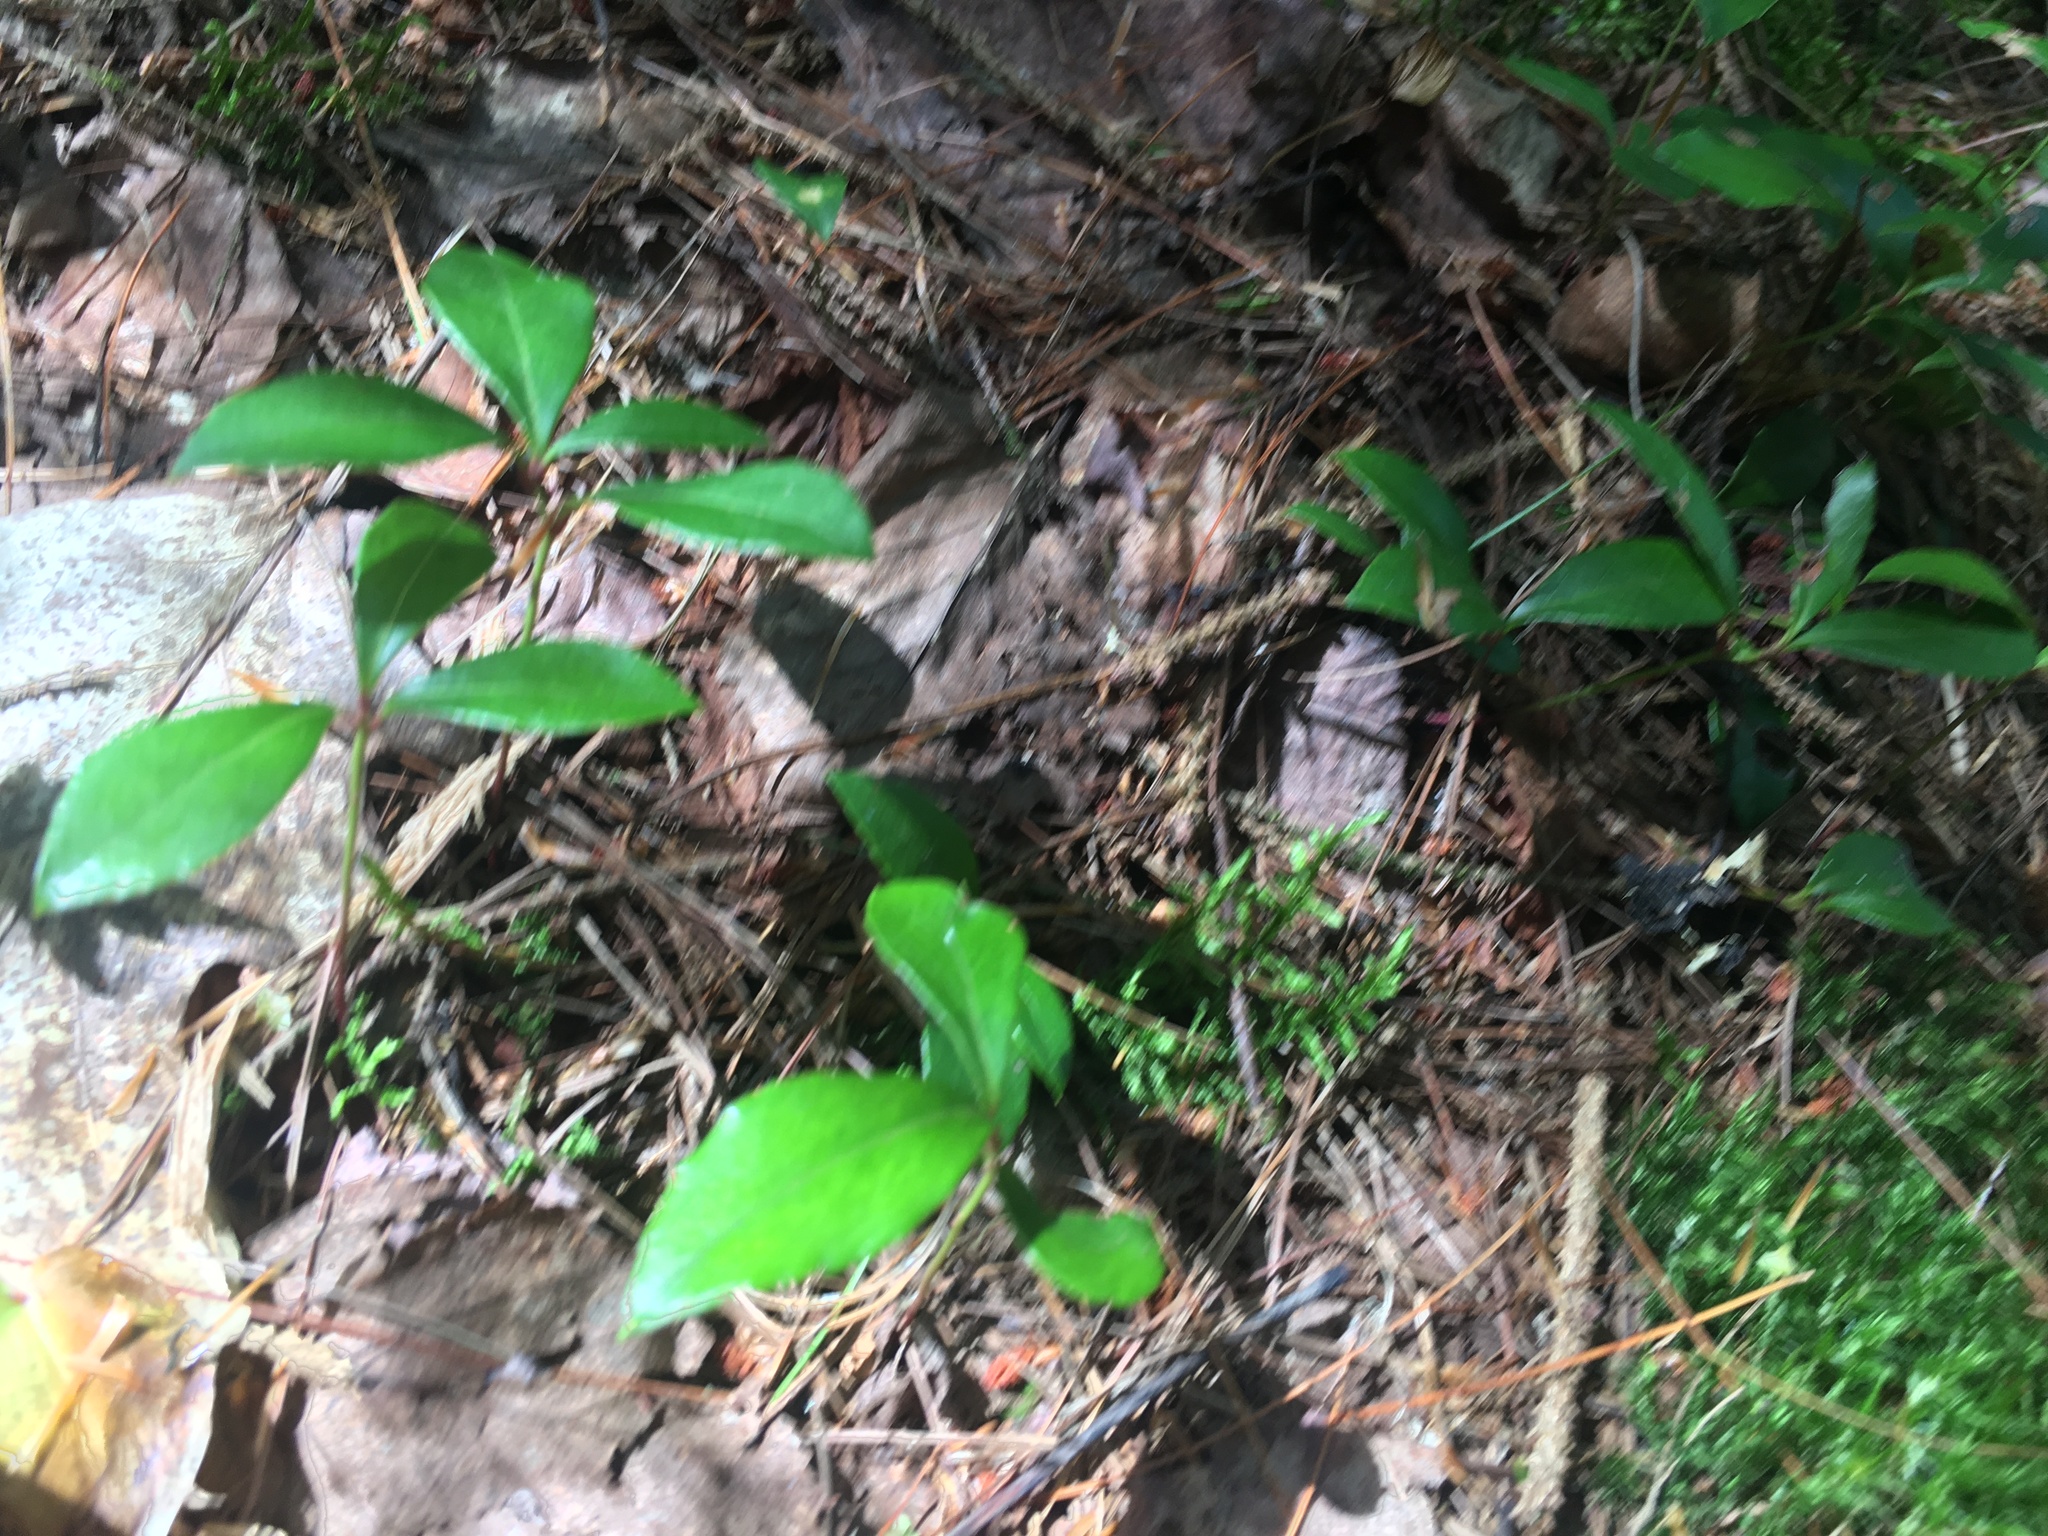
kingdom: Plantae
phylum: Tracheophyta
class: Magnoliopsida
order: Ericales
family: Ericaceae
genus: Gaultheria
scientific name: Gaultheria procumbens
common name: Checkerberry
